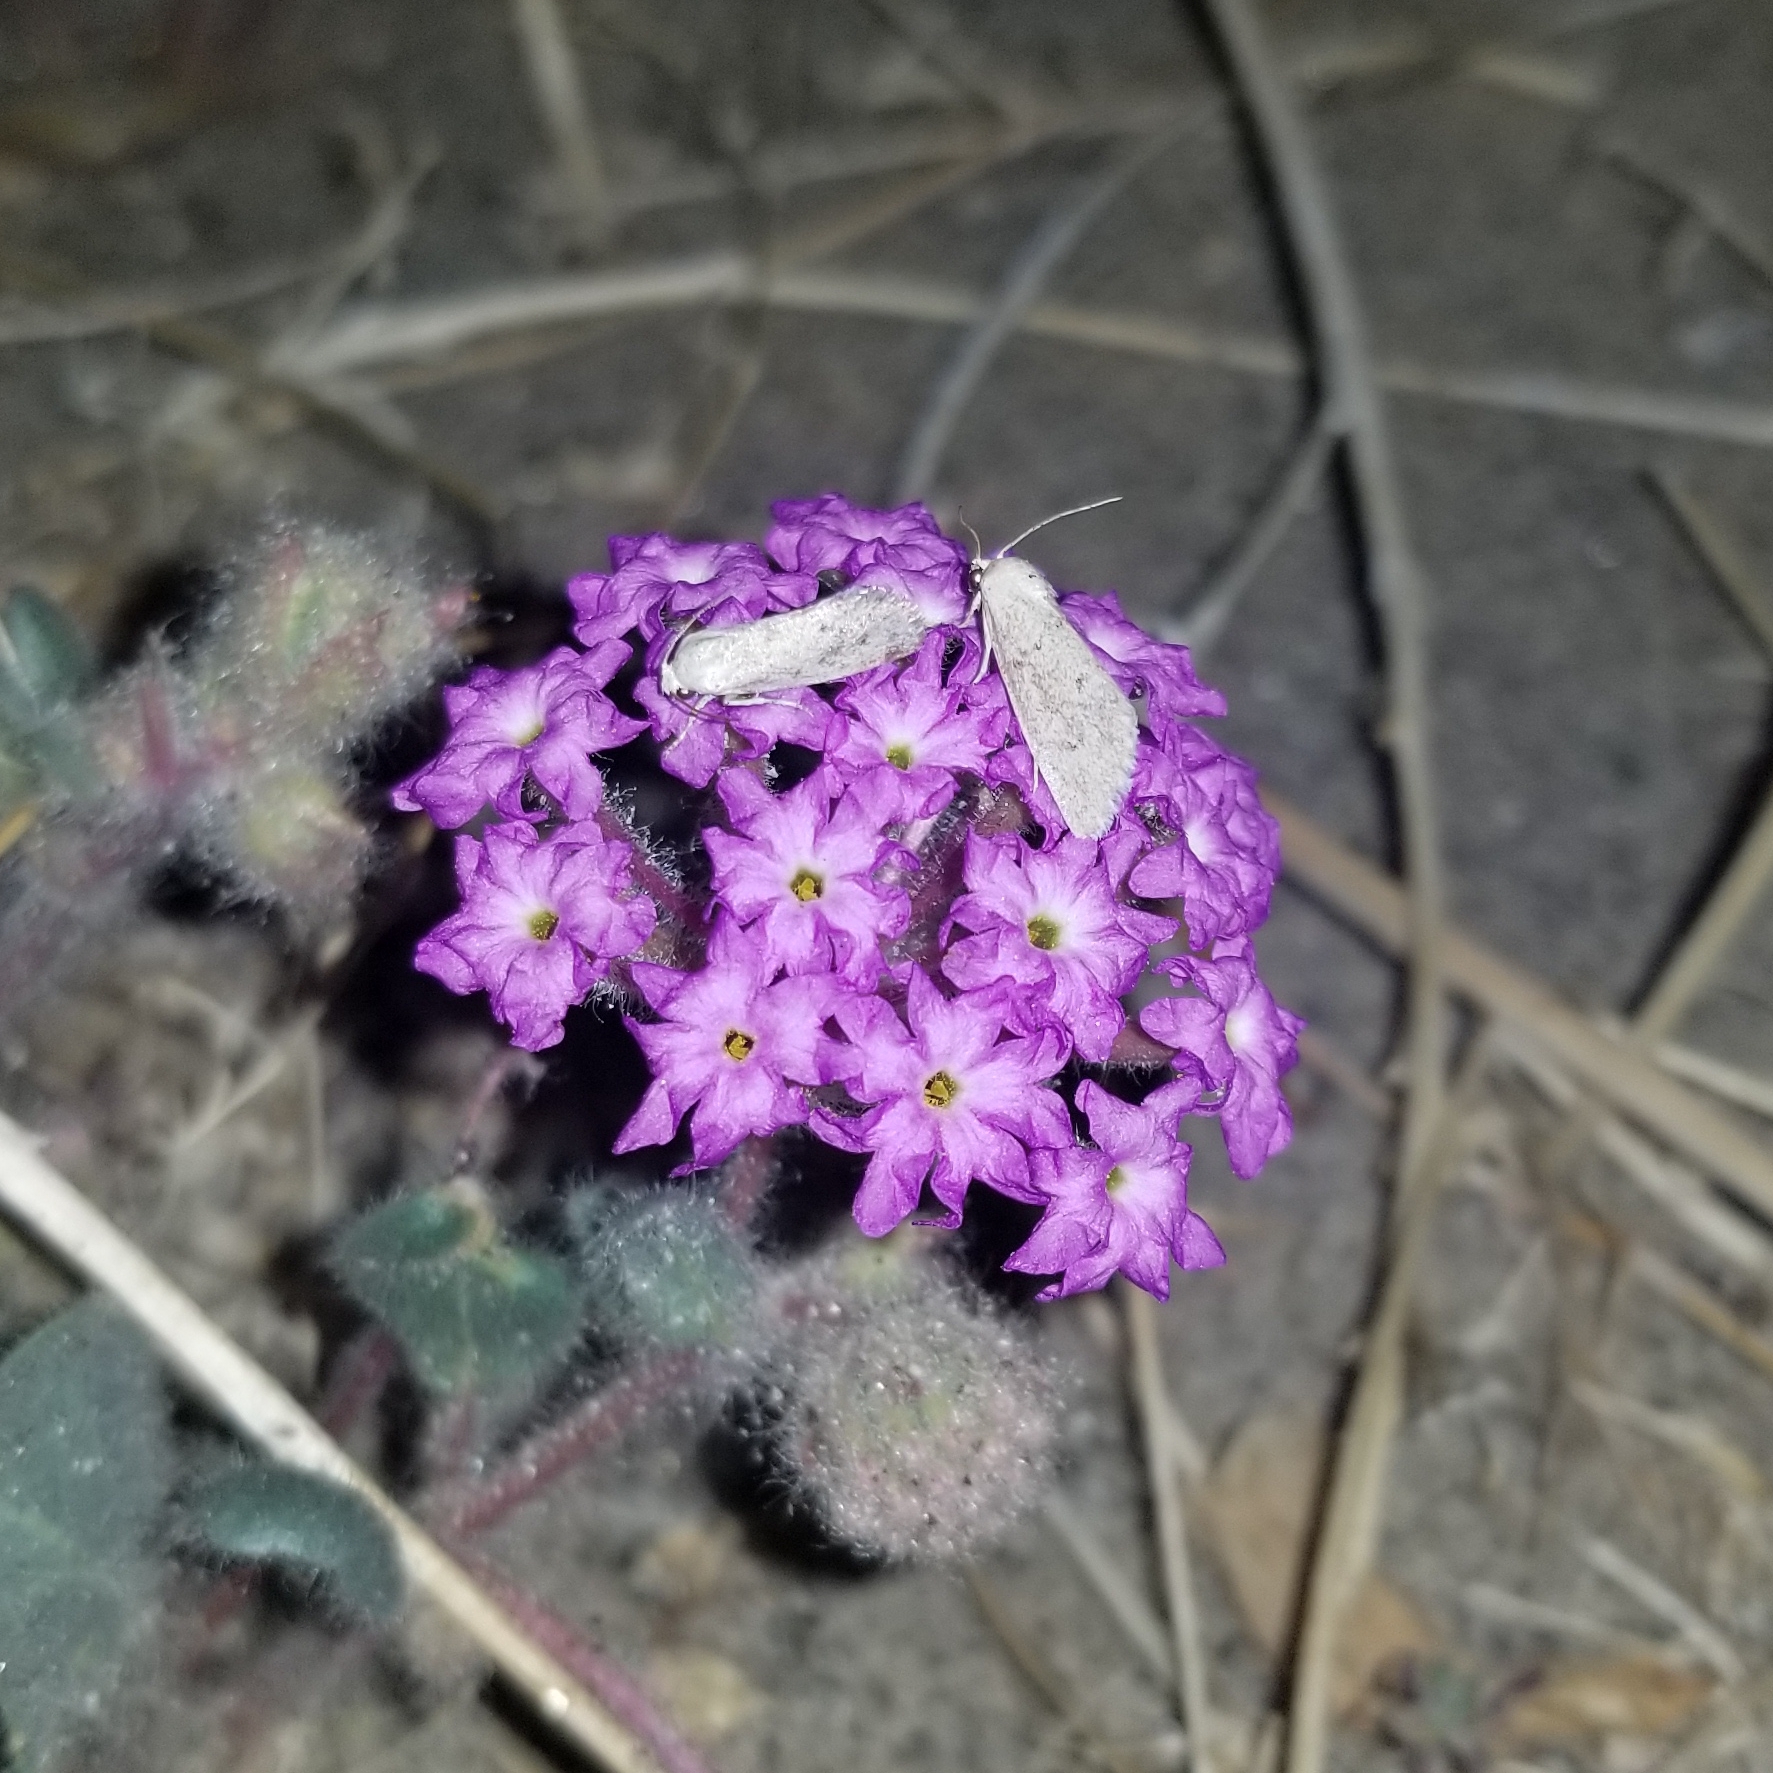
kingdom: Animalia
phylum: Arthropoda
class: Insecta
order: Lepidoptera
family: Noctuidae
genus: Neogrotella
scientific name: Neogrotella
